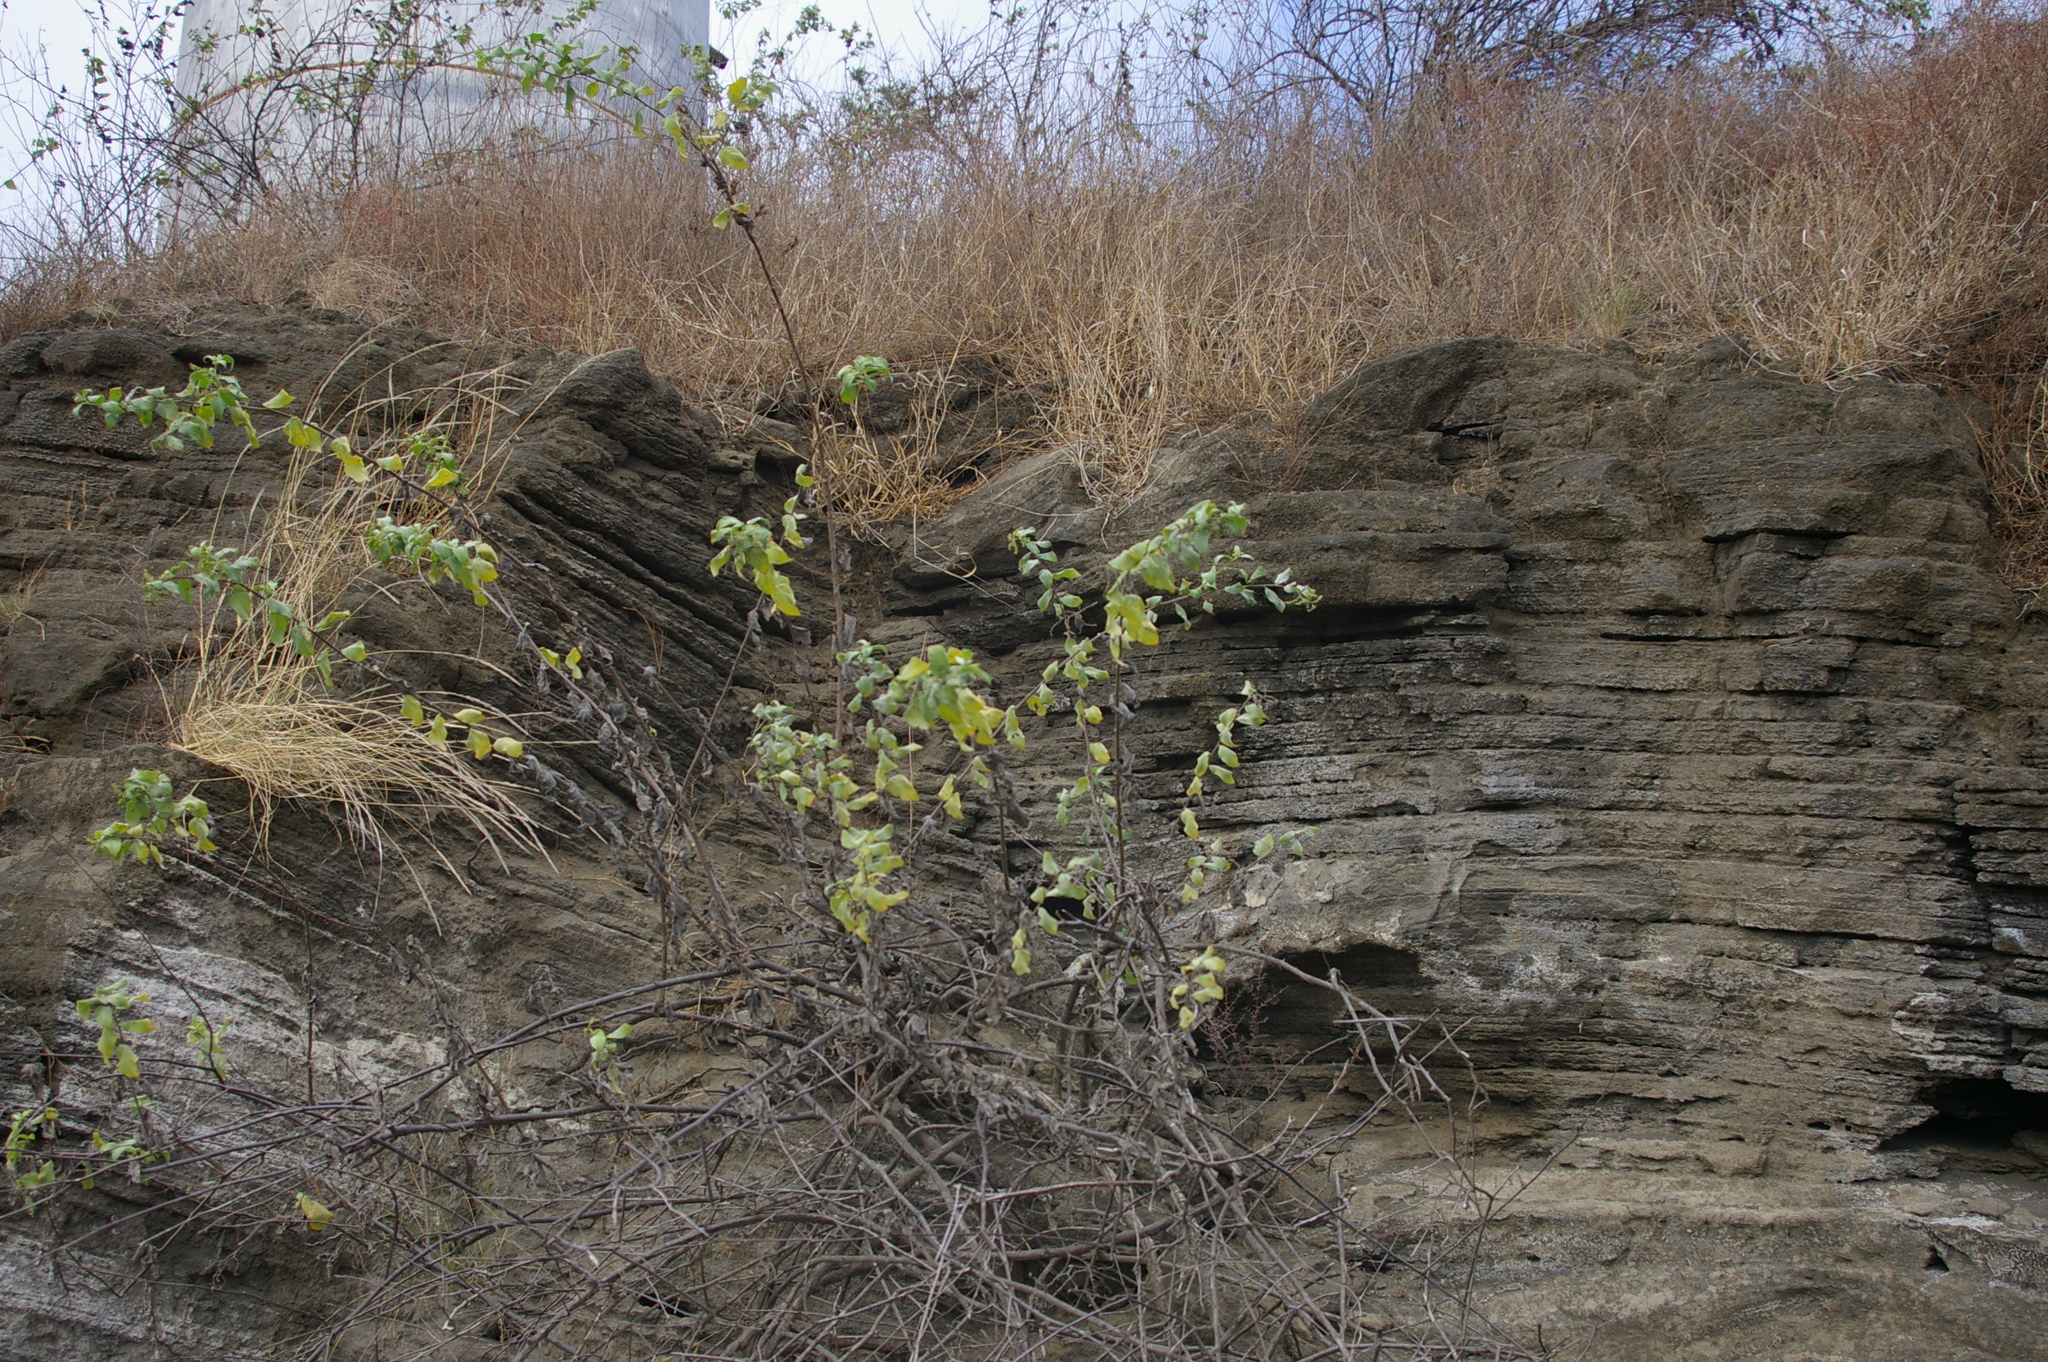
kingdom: Plantae
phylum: Tracheophyta
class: Magnoliopsida
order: Boraginales
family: Heliotropiaceae
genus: Myriopus
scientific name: Myriopus psilostachya
